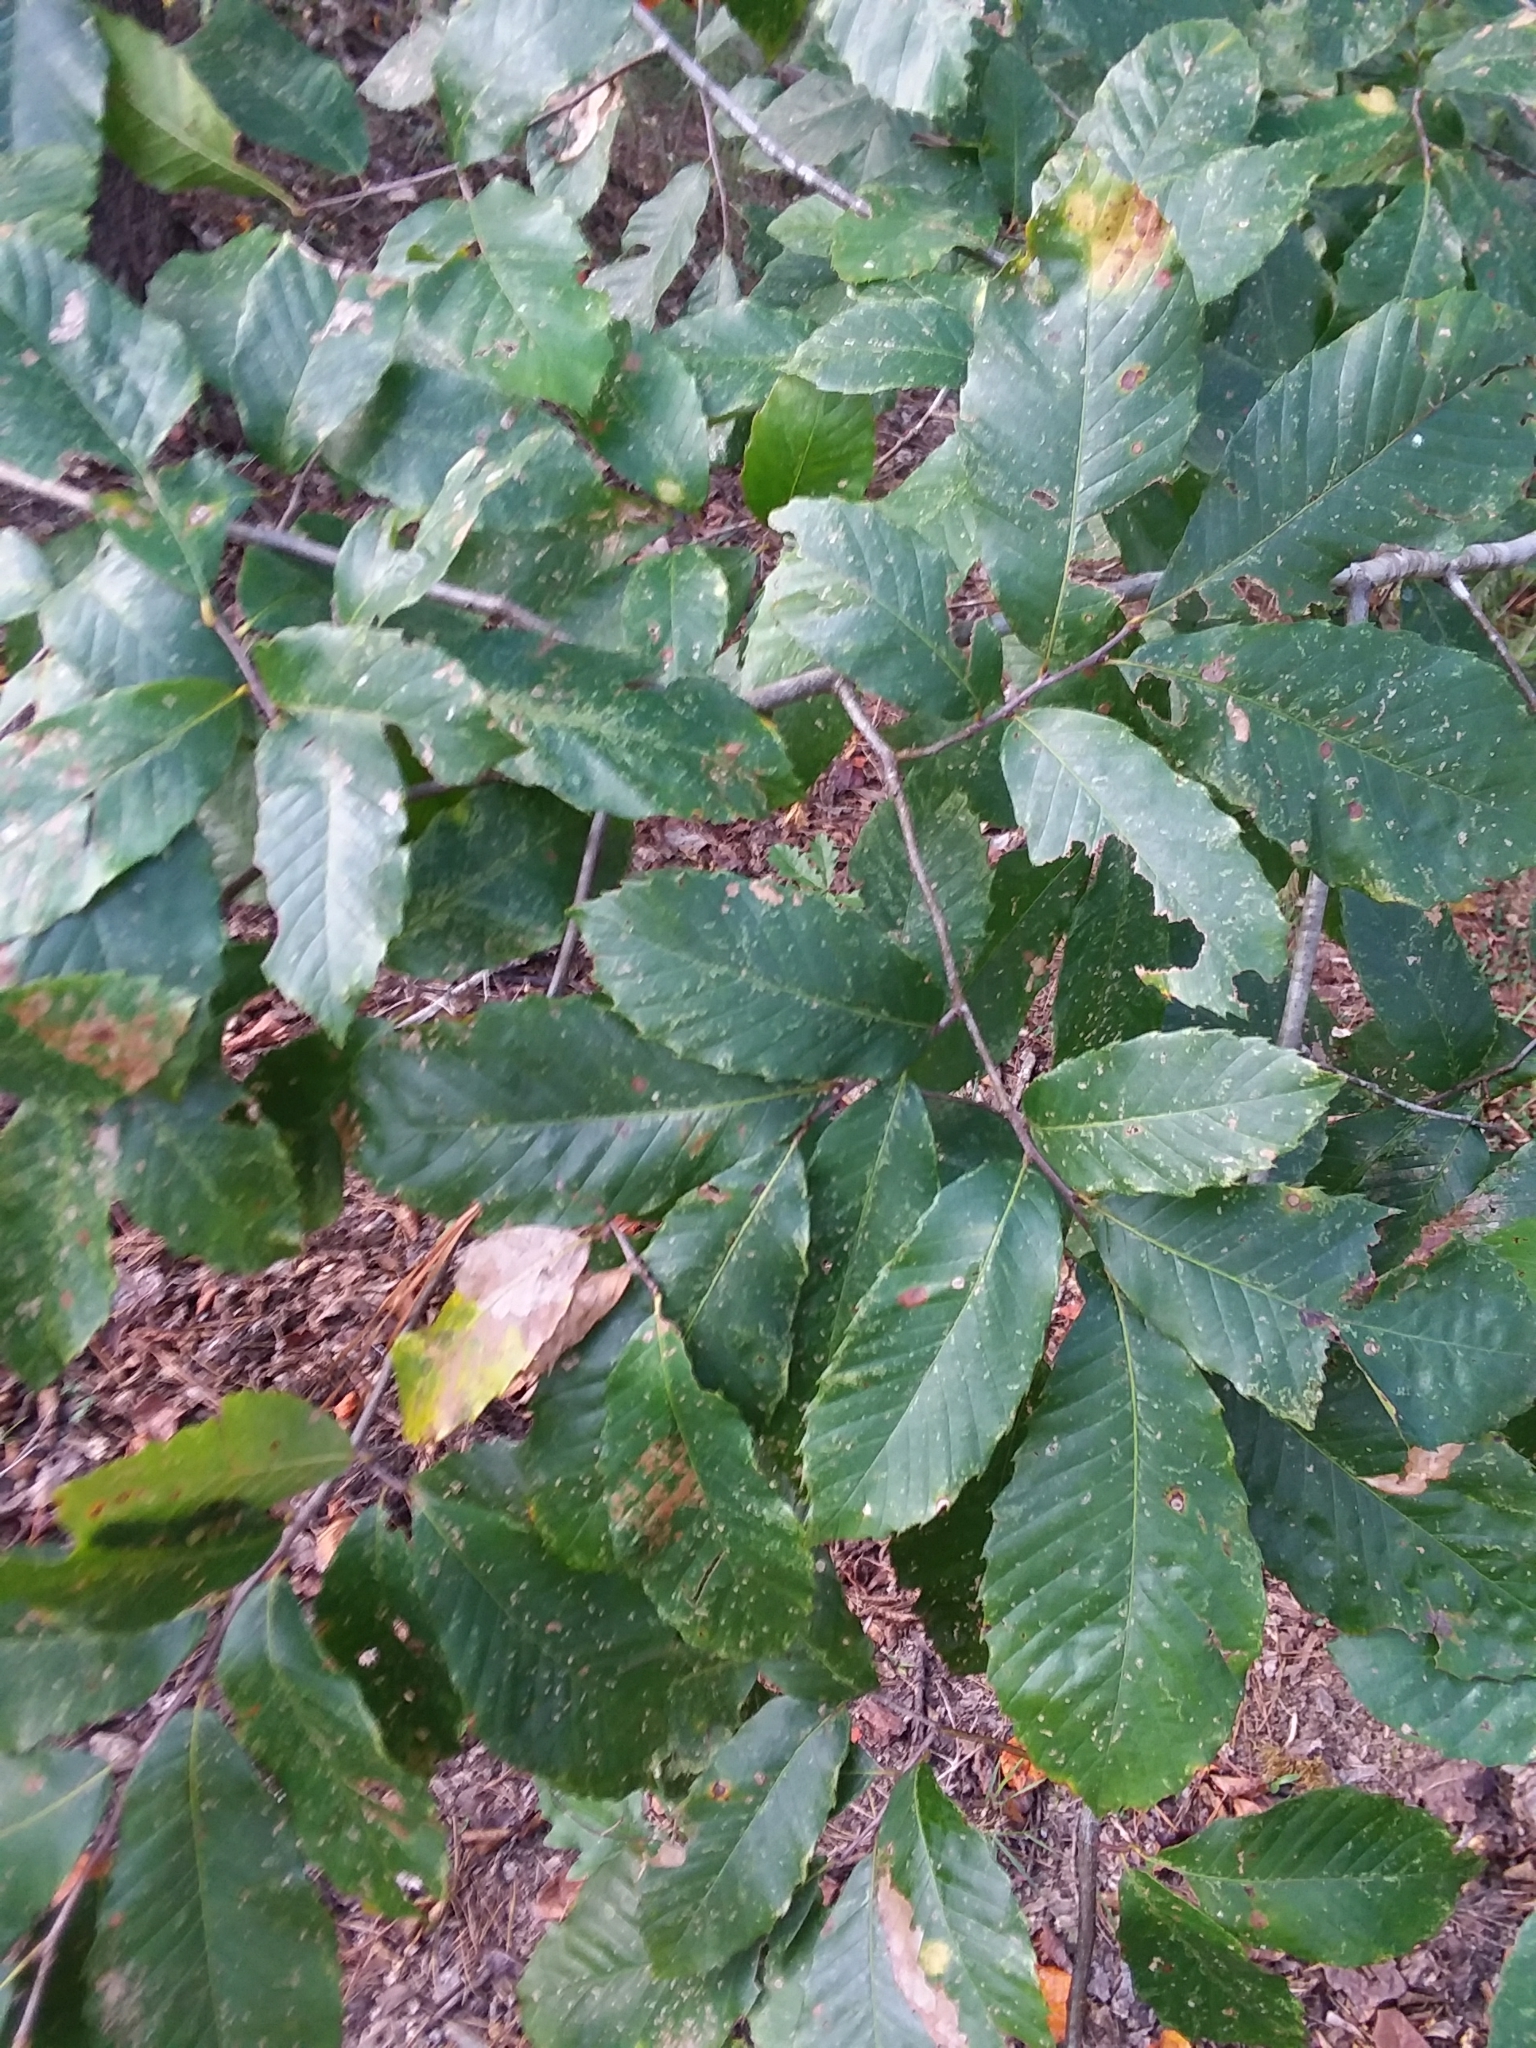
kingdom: Plantae
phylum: Tracheophyta
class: Magnoliopsida
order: Fagales
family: Fagaceae
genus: Castanea
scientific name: Castanea pumila
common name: Chinkapin
